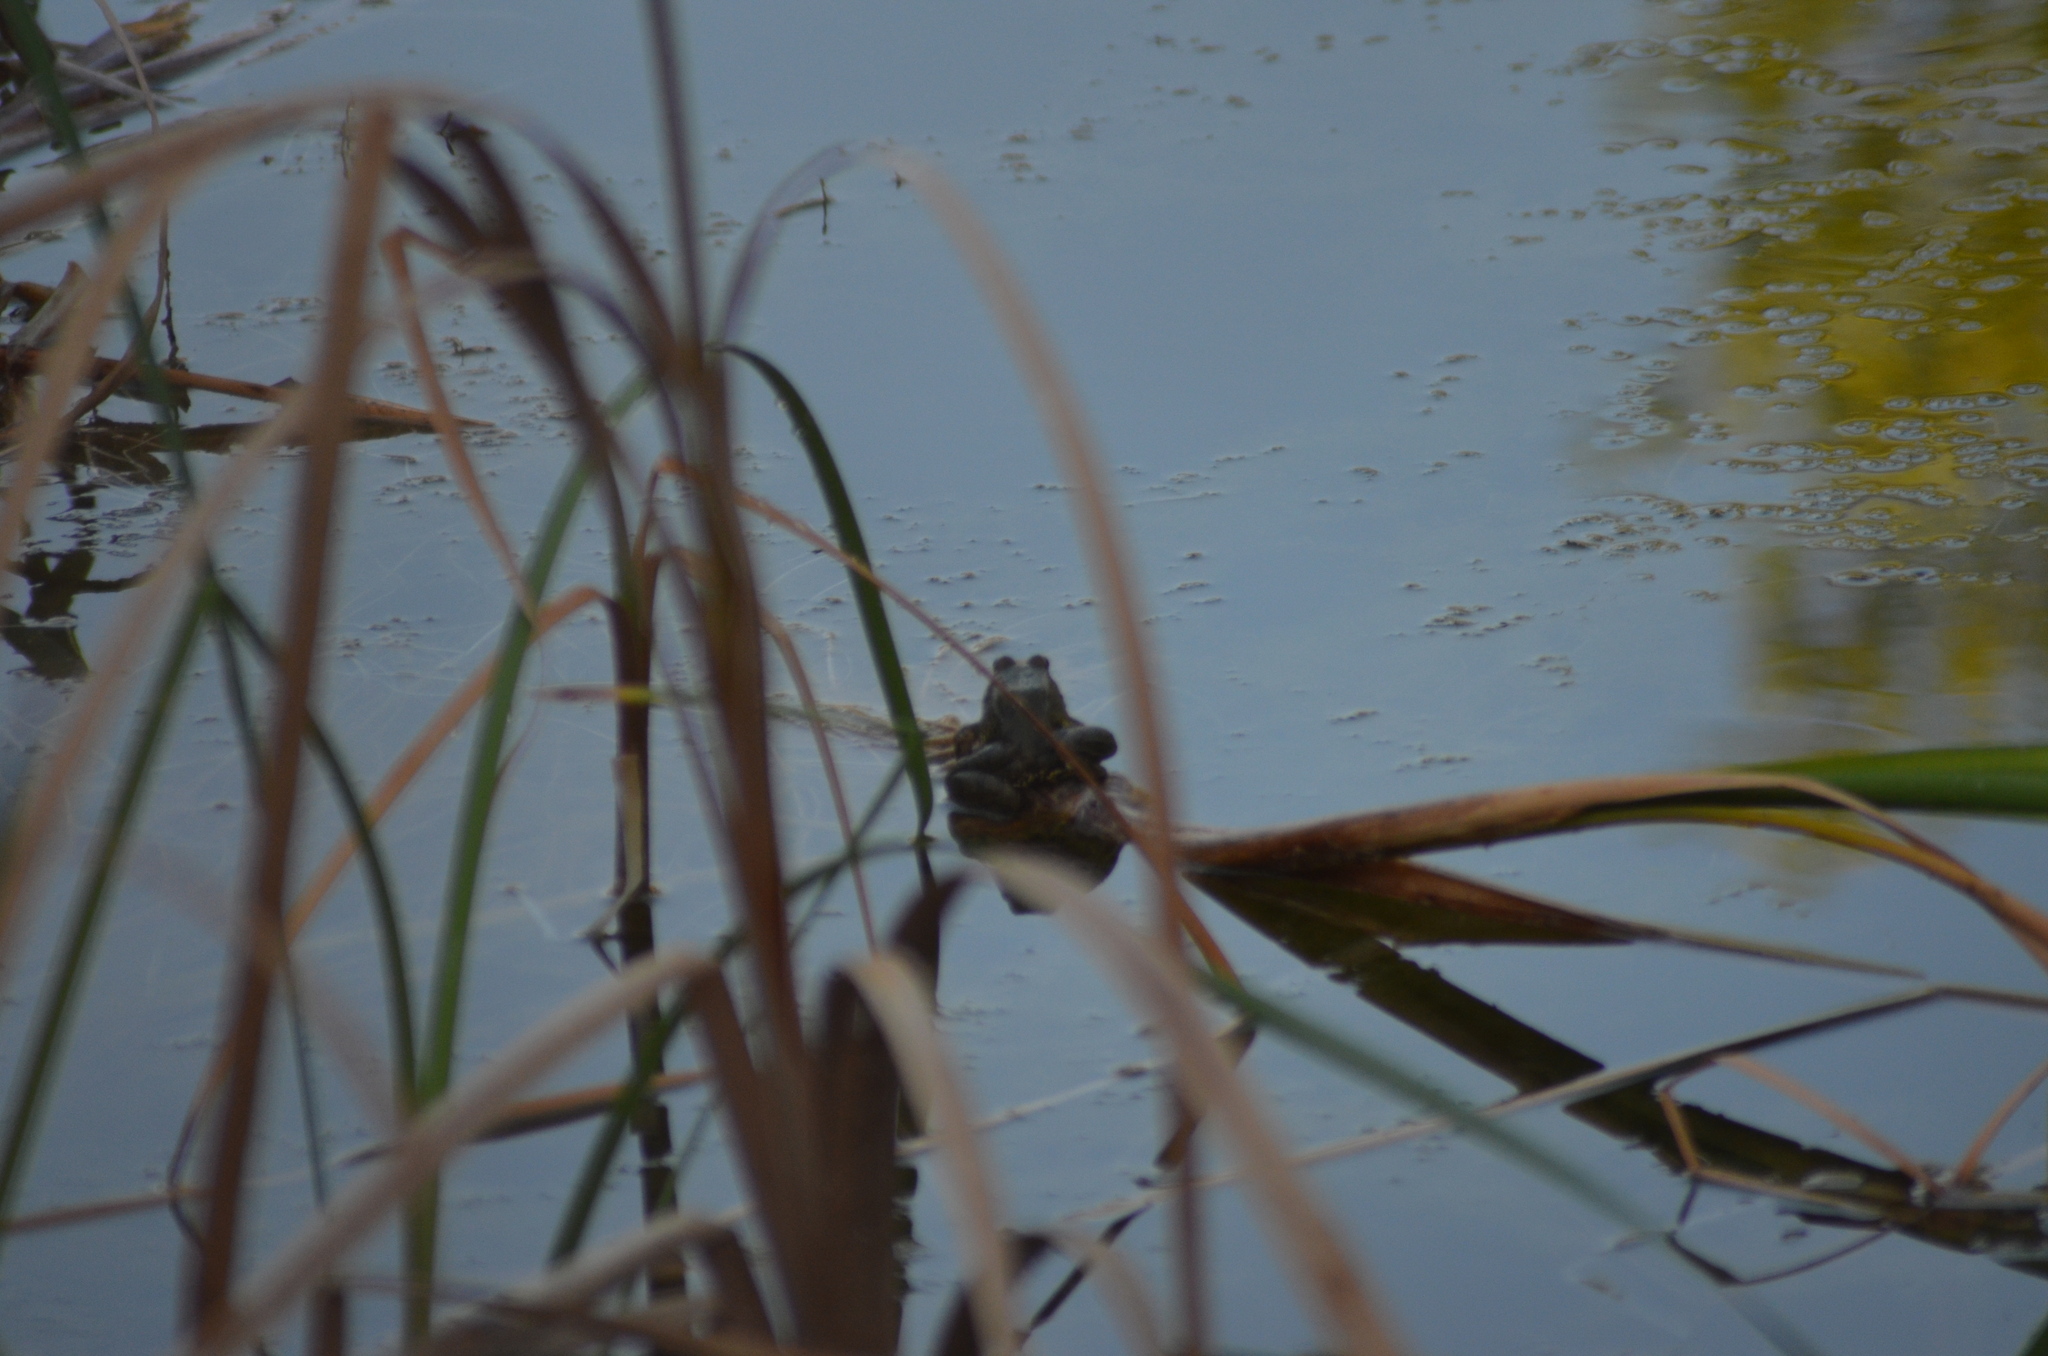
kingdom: Animalia
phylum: Chordata
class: Amphibia
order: Anura
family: Ranidae
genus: Pelophylax
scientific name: Pelophylax perezi
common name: Perez's frog
